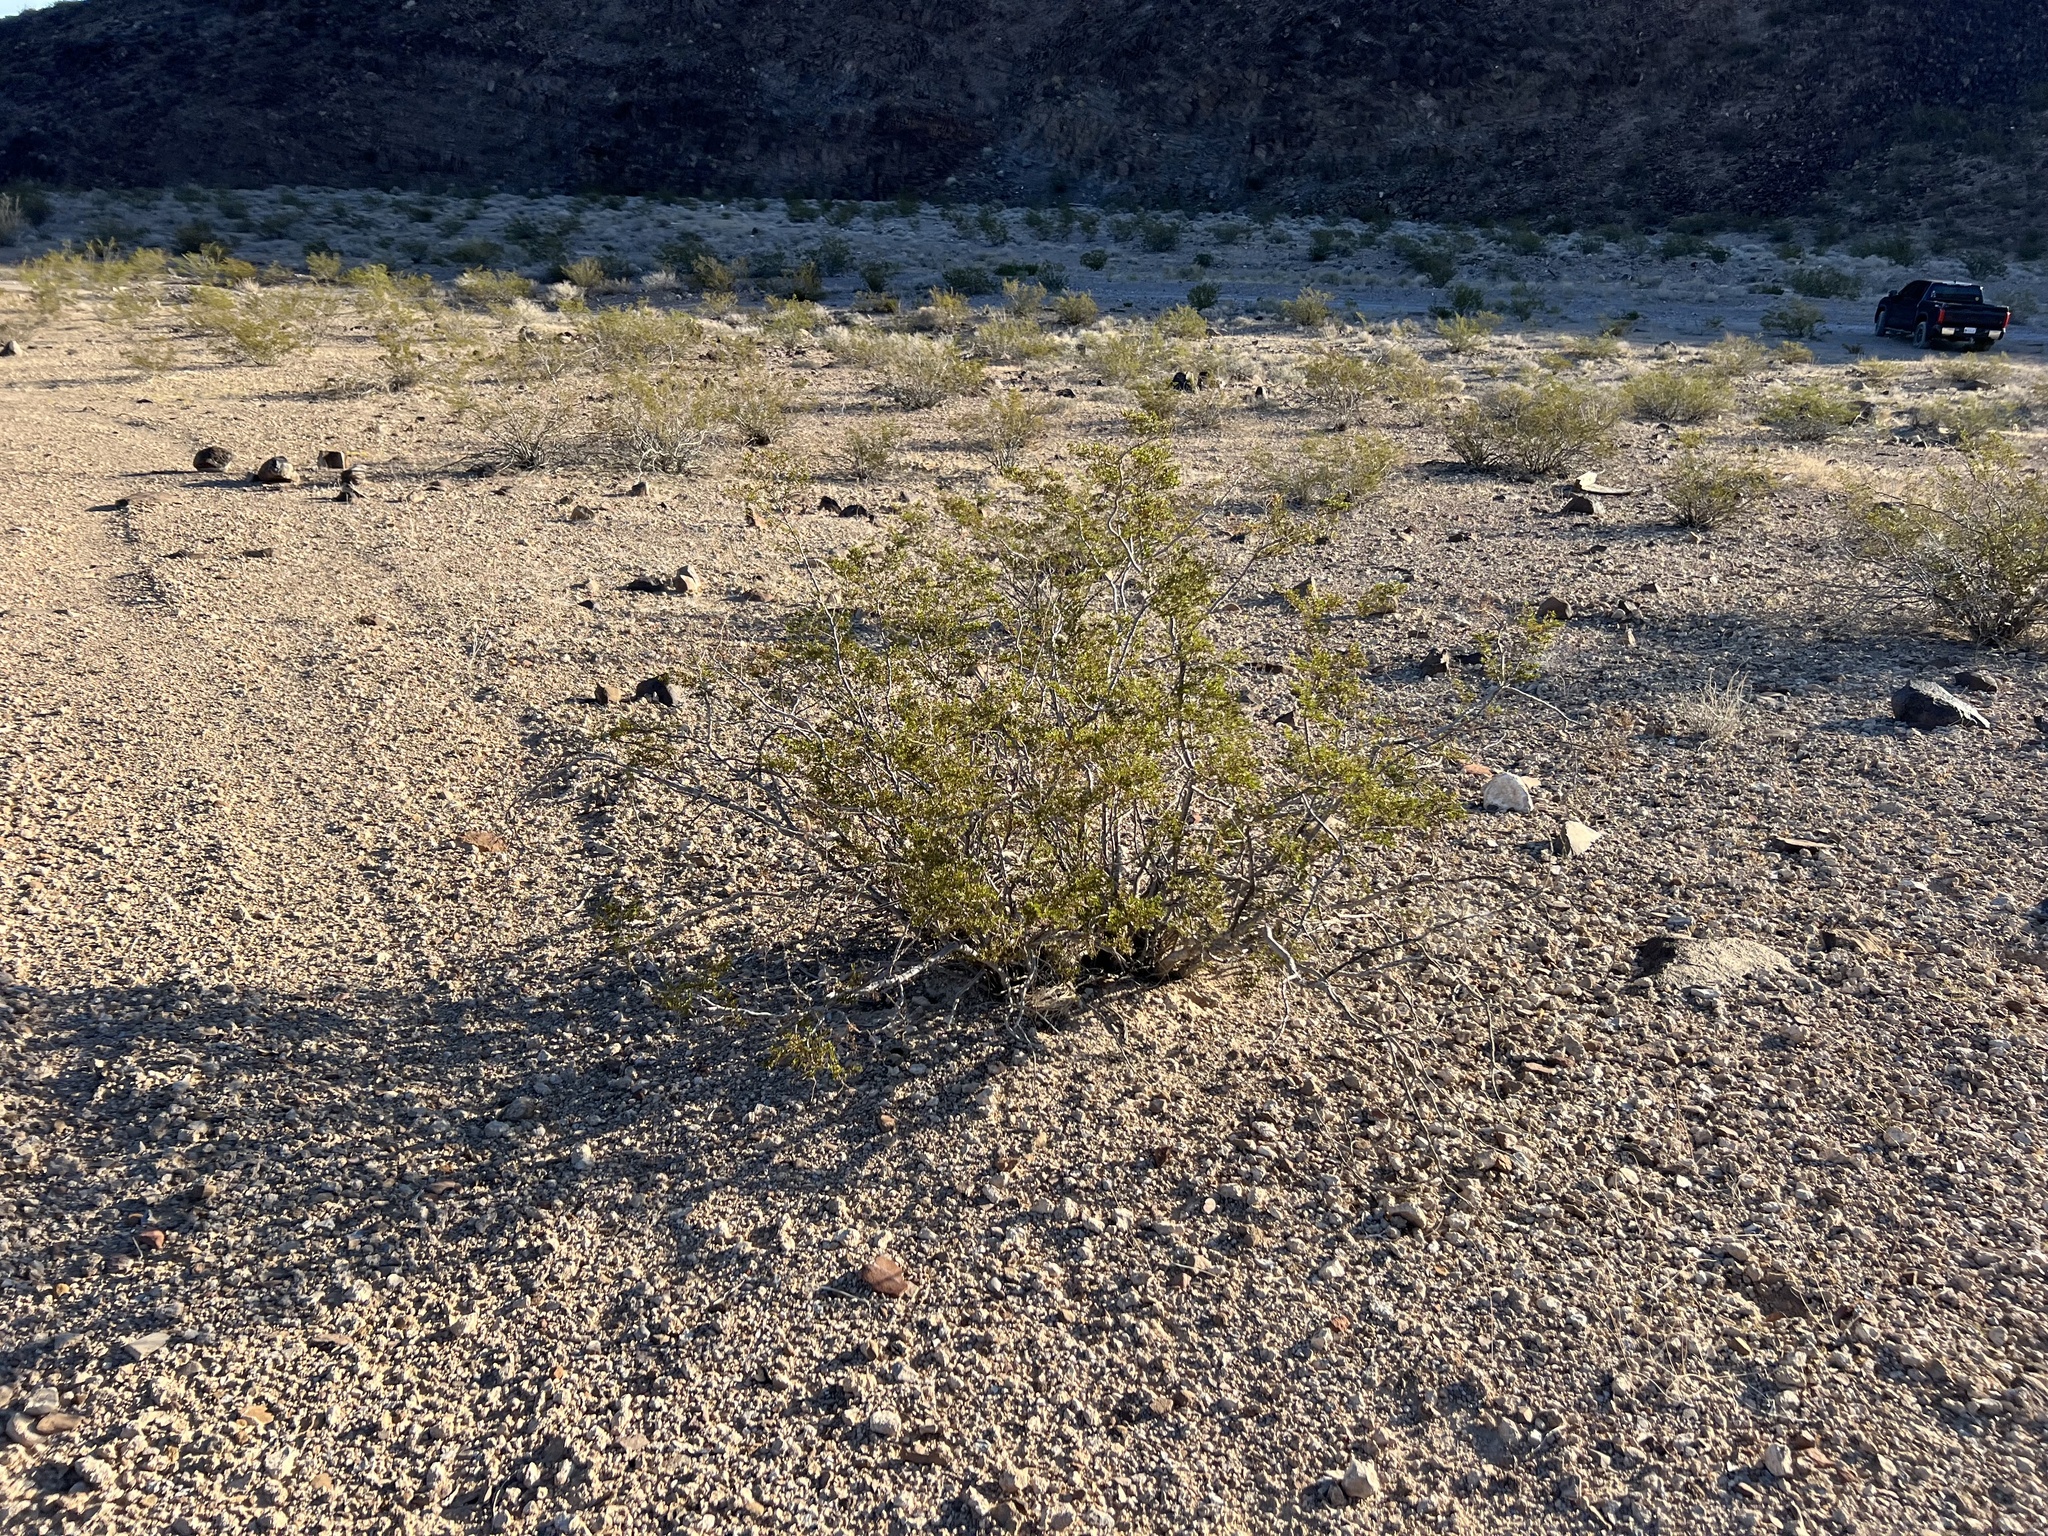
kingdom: Plantae
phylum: Tracheophyta
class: Magnoliopsida
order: Zygophyllales
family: Zygophyllaceae
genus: Larrea
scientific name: Larrea tridentata
